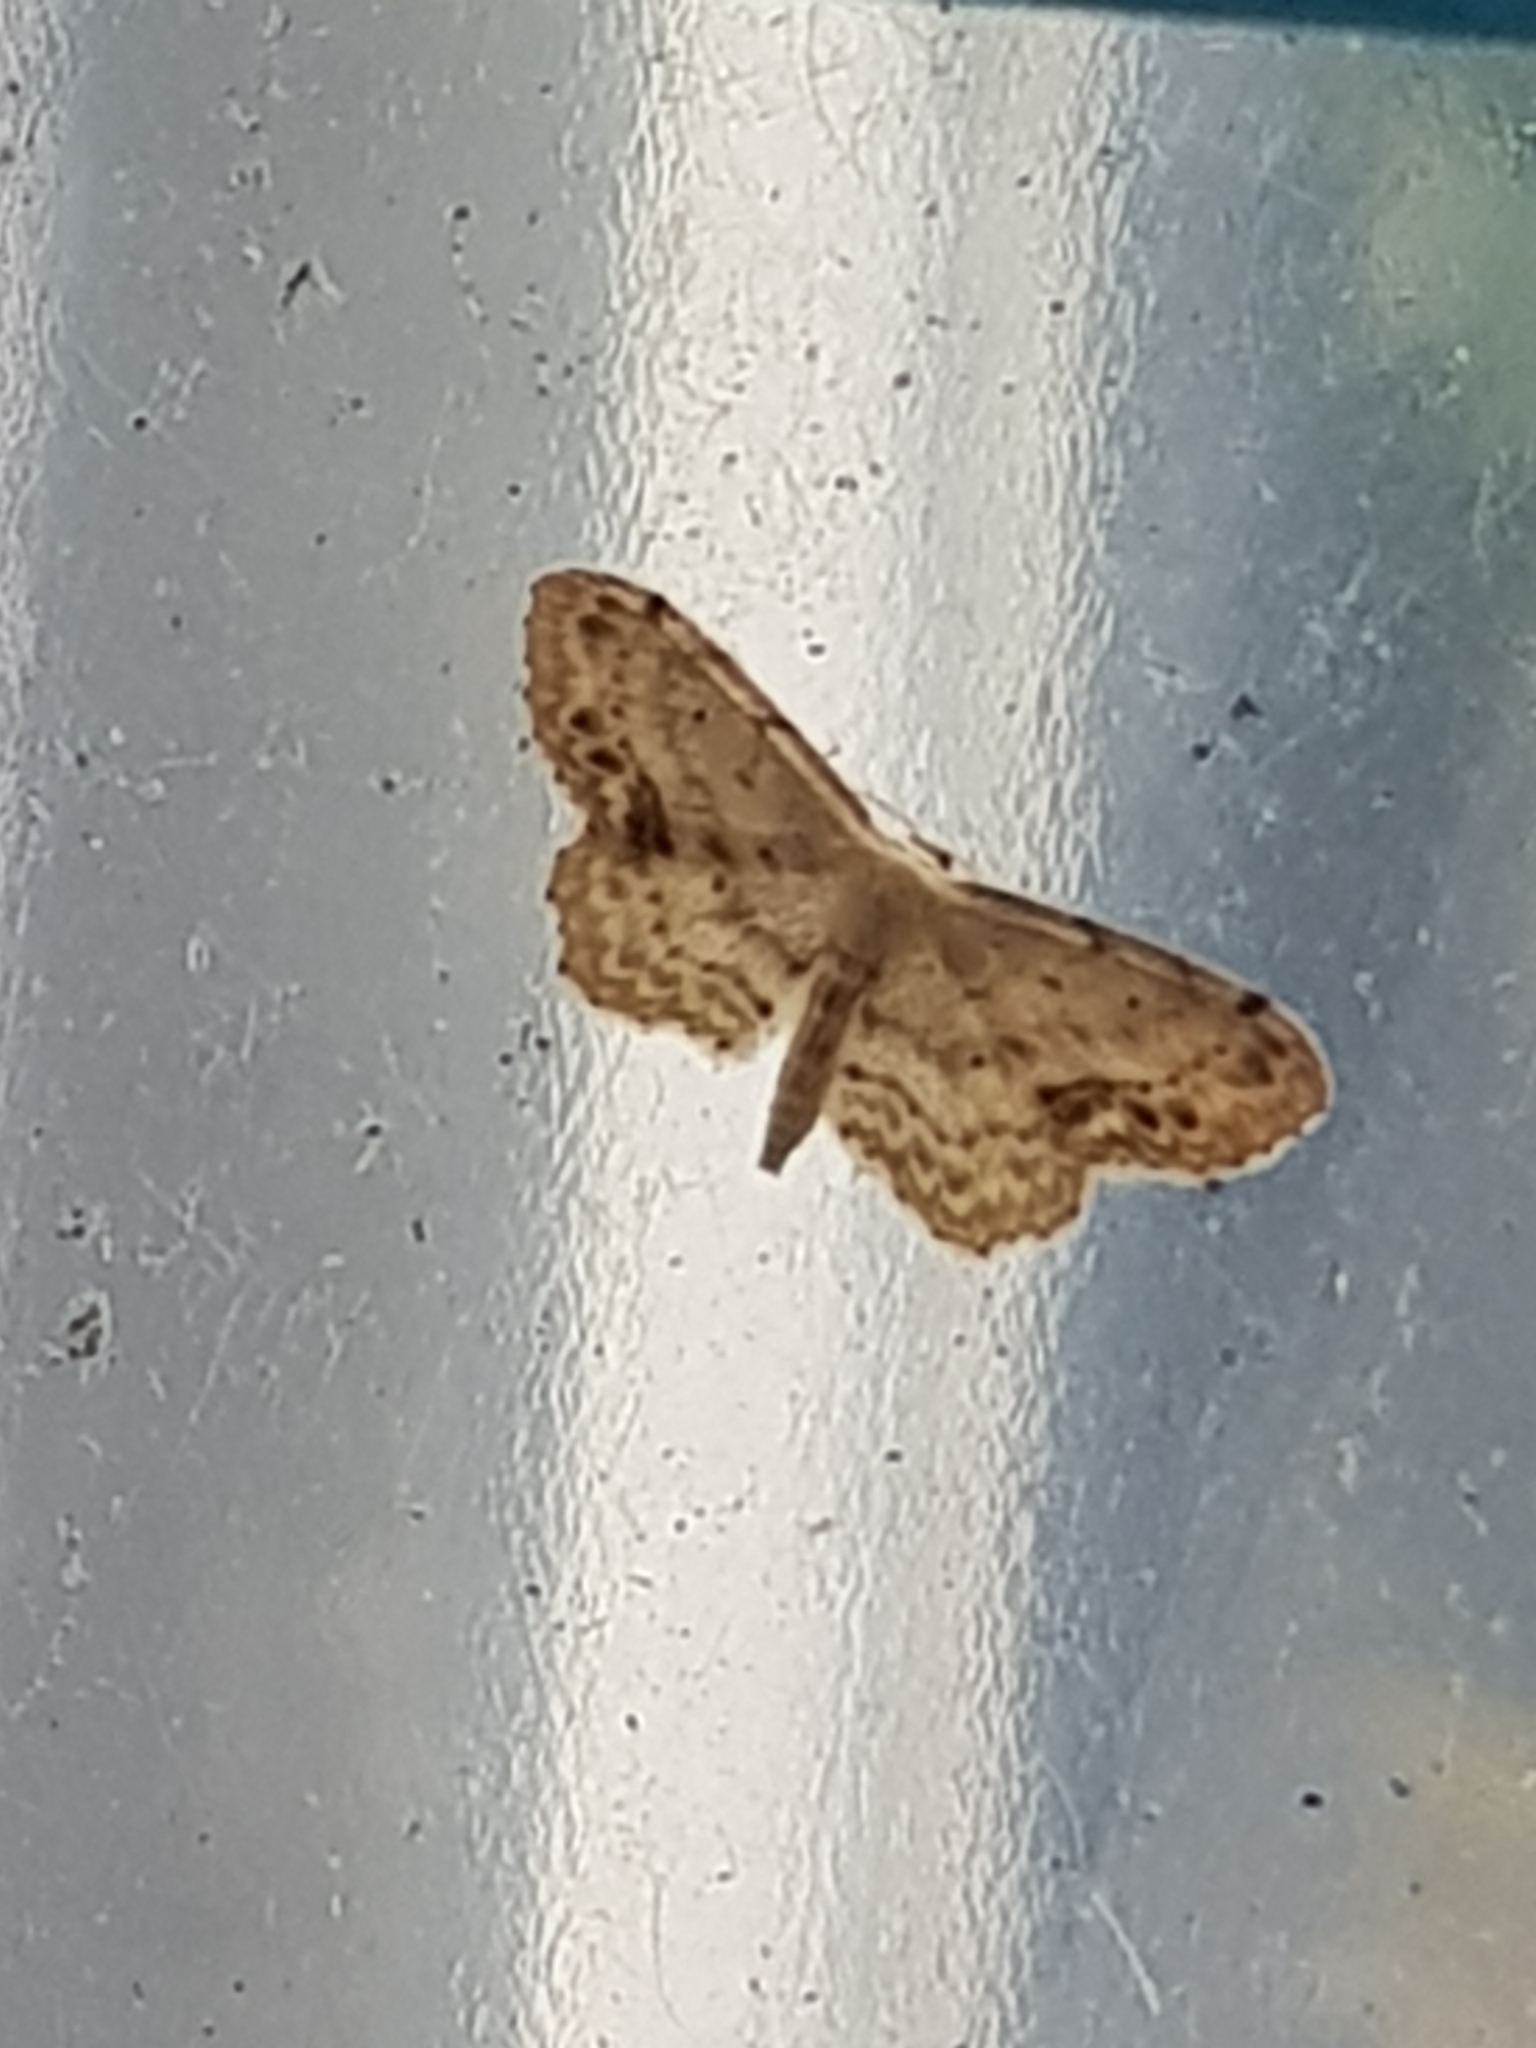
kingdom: Animalia
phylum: Arthropoda
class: Insecta
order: Lepidoptera
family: Geometridae
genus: Idaea
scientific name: Idaea dimidiata
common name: Single-dotted wave
